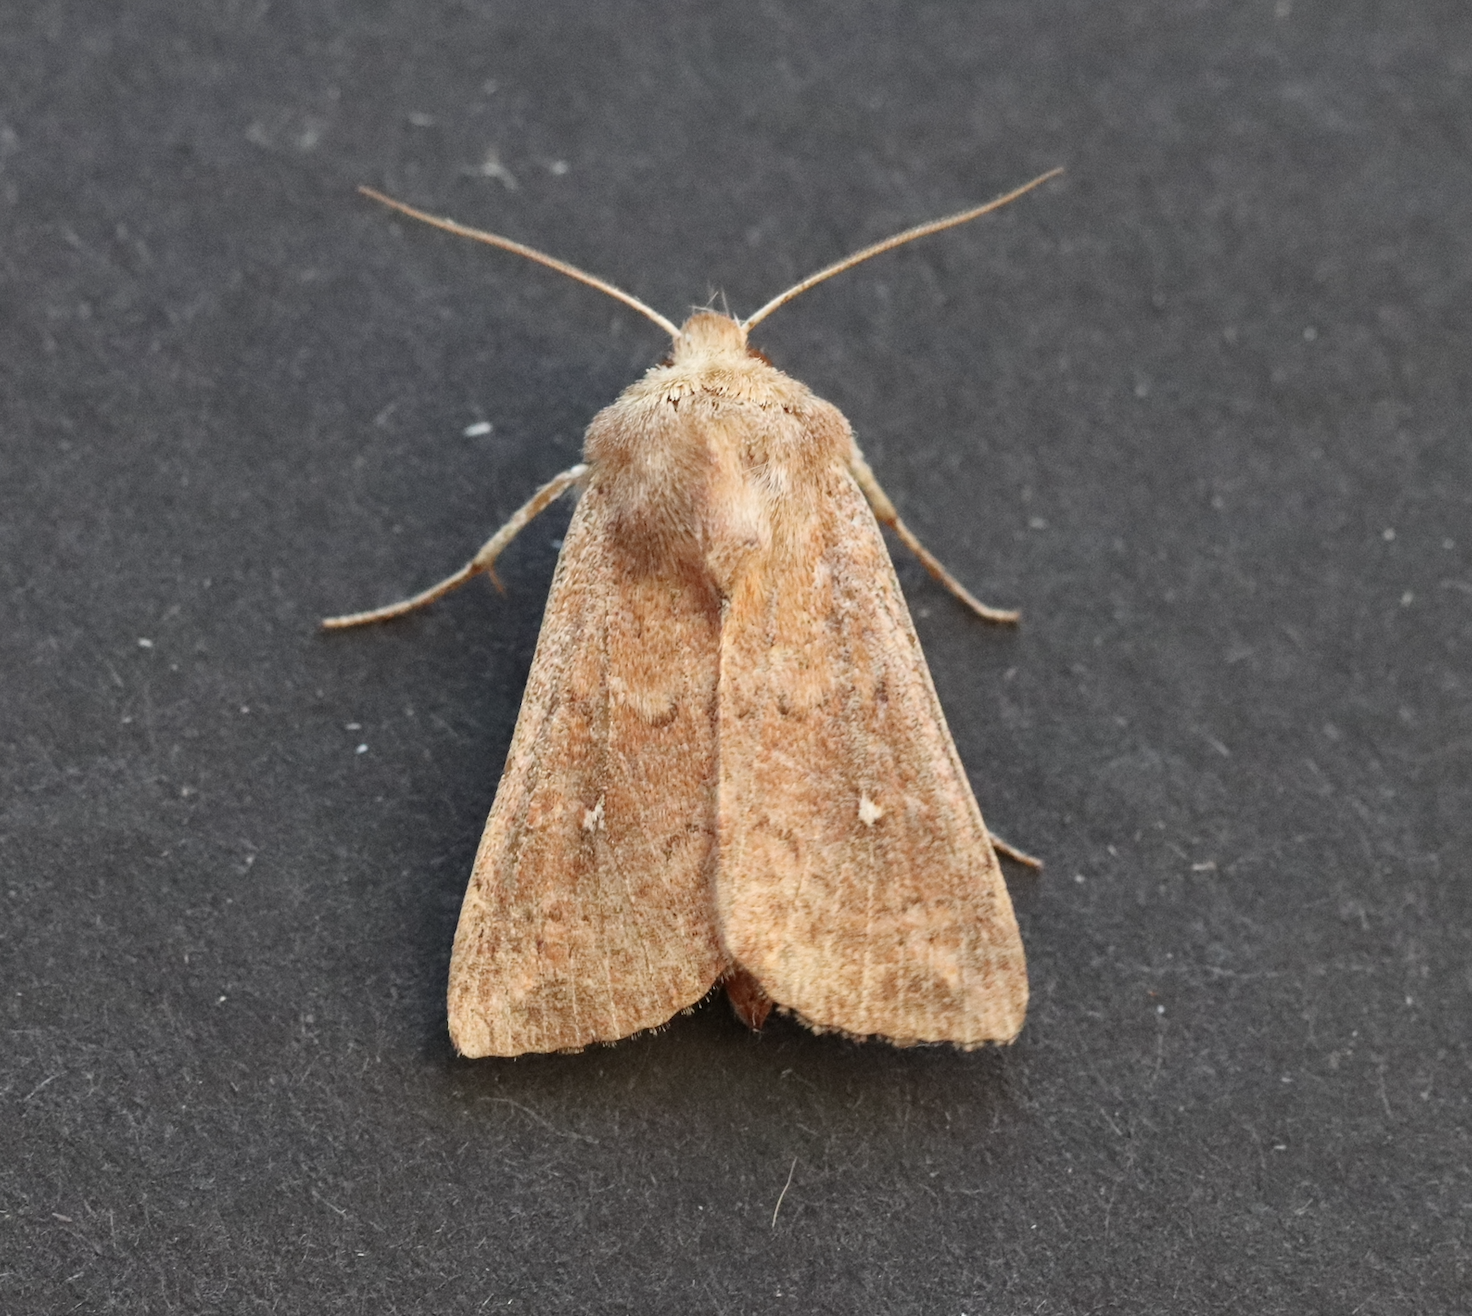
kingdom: Animalia
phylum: Arthropoda
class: Insecta
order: Lepidoptera
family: Noctuidae
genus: Mythimna
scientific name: Mythimna albipuncta
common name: White-point
